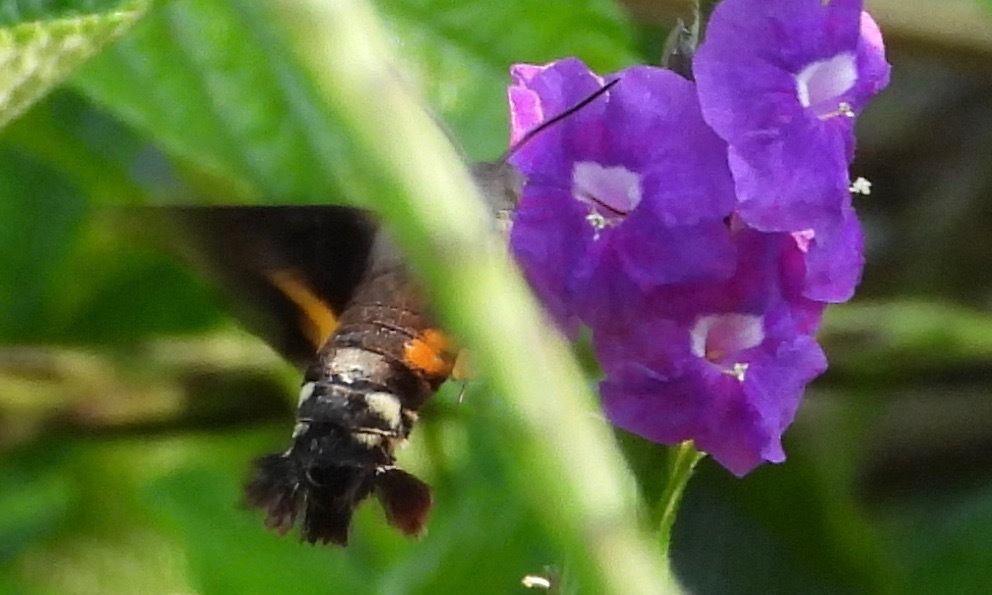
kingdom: Animalia
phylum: Arthropoda
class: Insecta
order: Lepidoptera
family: Sphingidae
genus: Aellopos
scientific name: Aellopos ceculus
